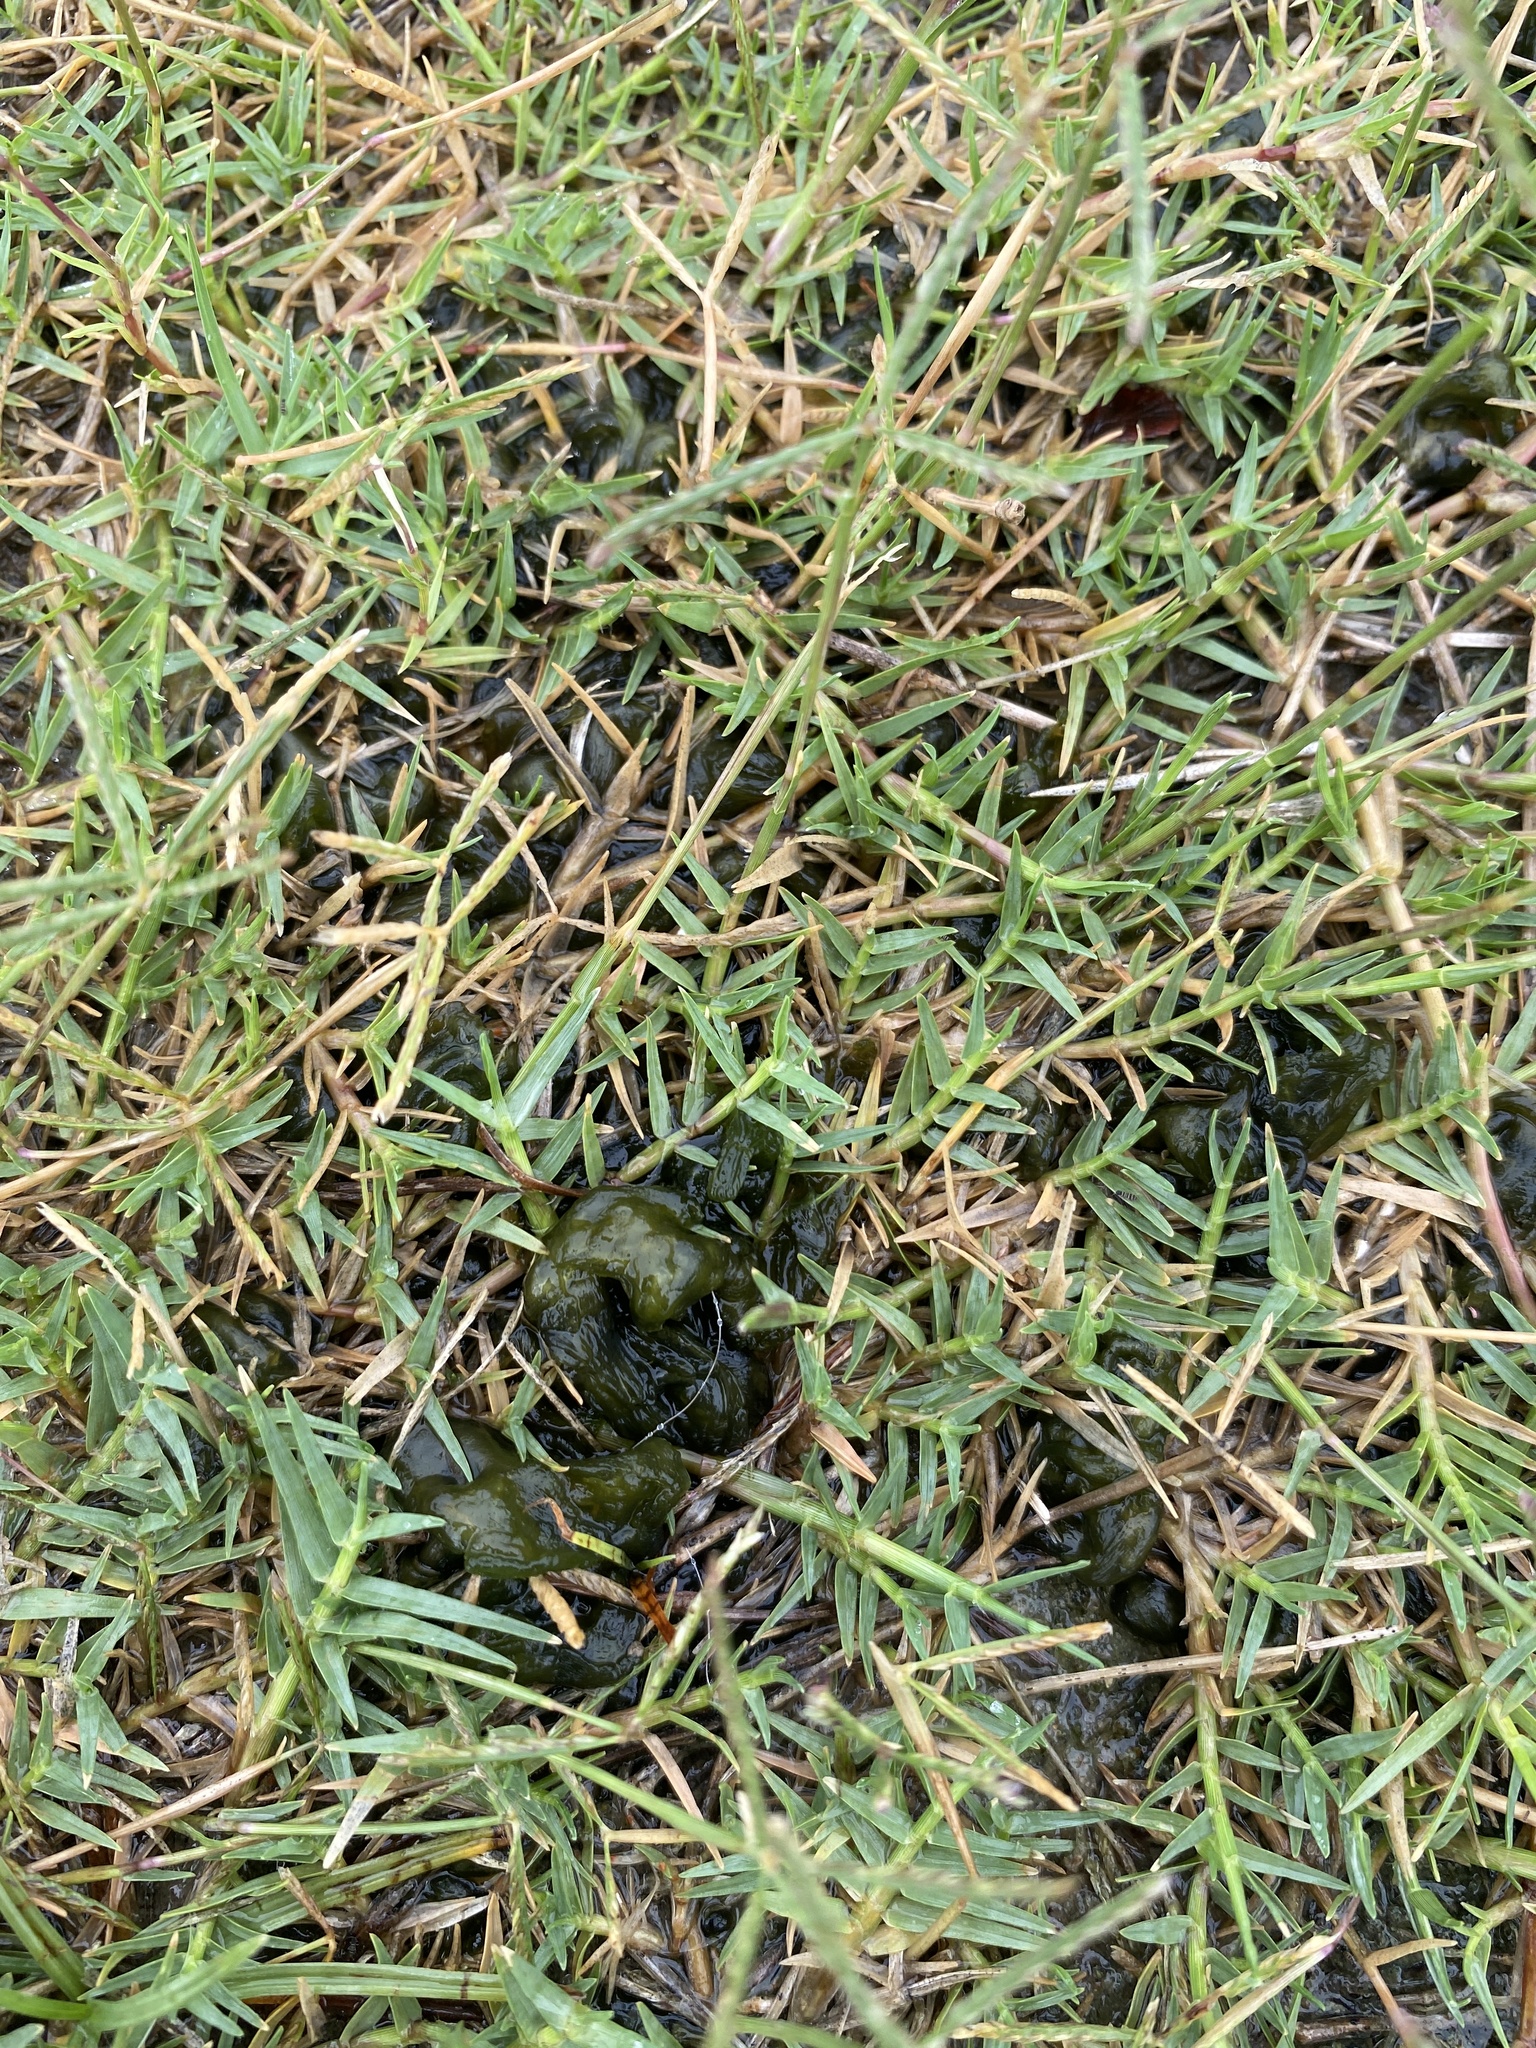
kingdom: Bacteria
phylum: Cyanobacteria
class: Cyanobacteriia
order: Cyanobacteriales
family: Nostocaceae
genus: Nostoc
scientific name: Nostoc commune
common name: Star jelly
